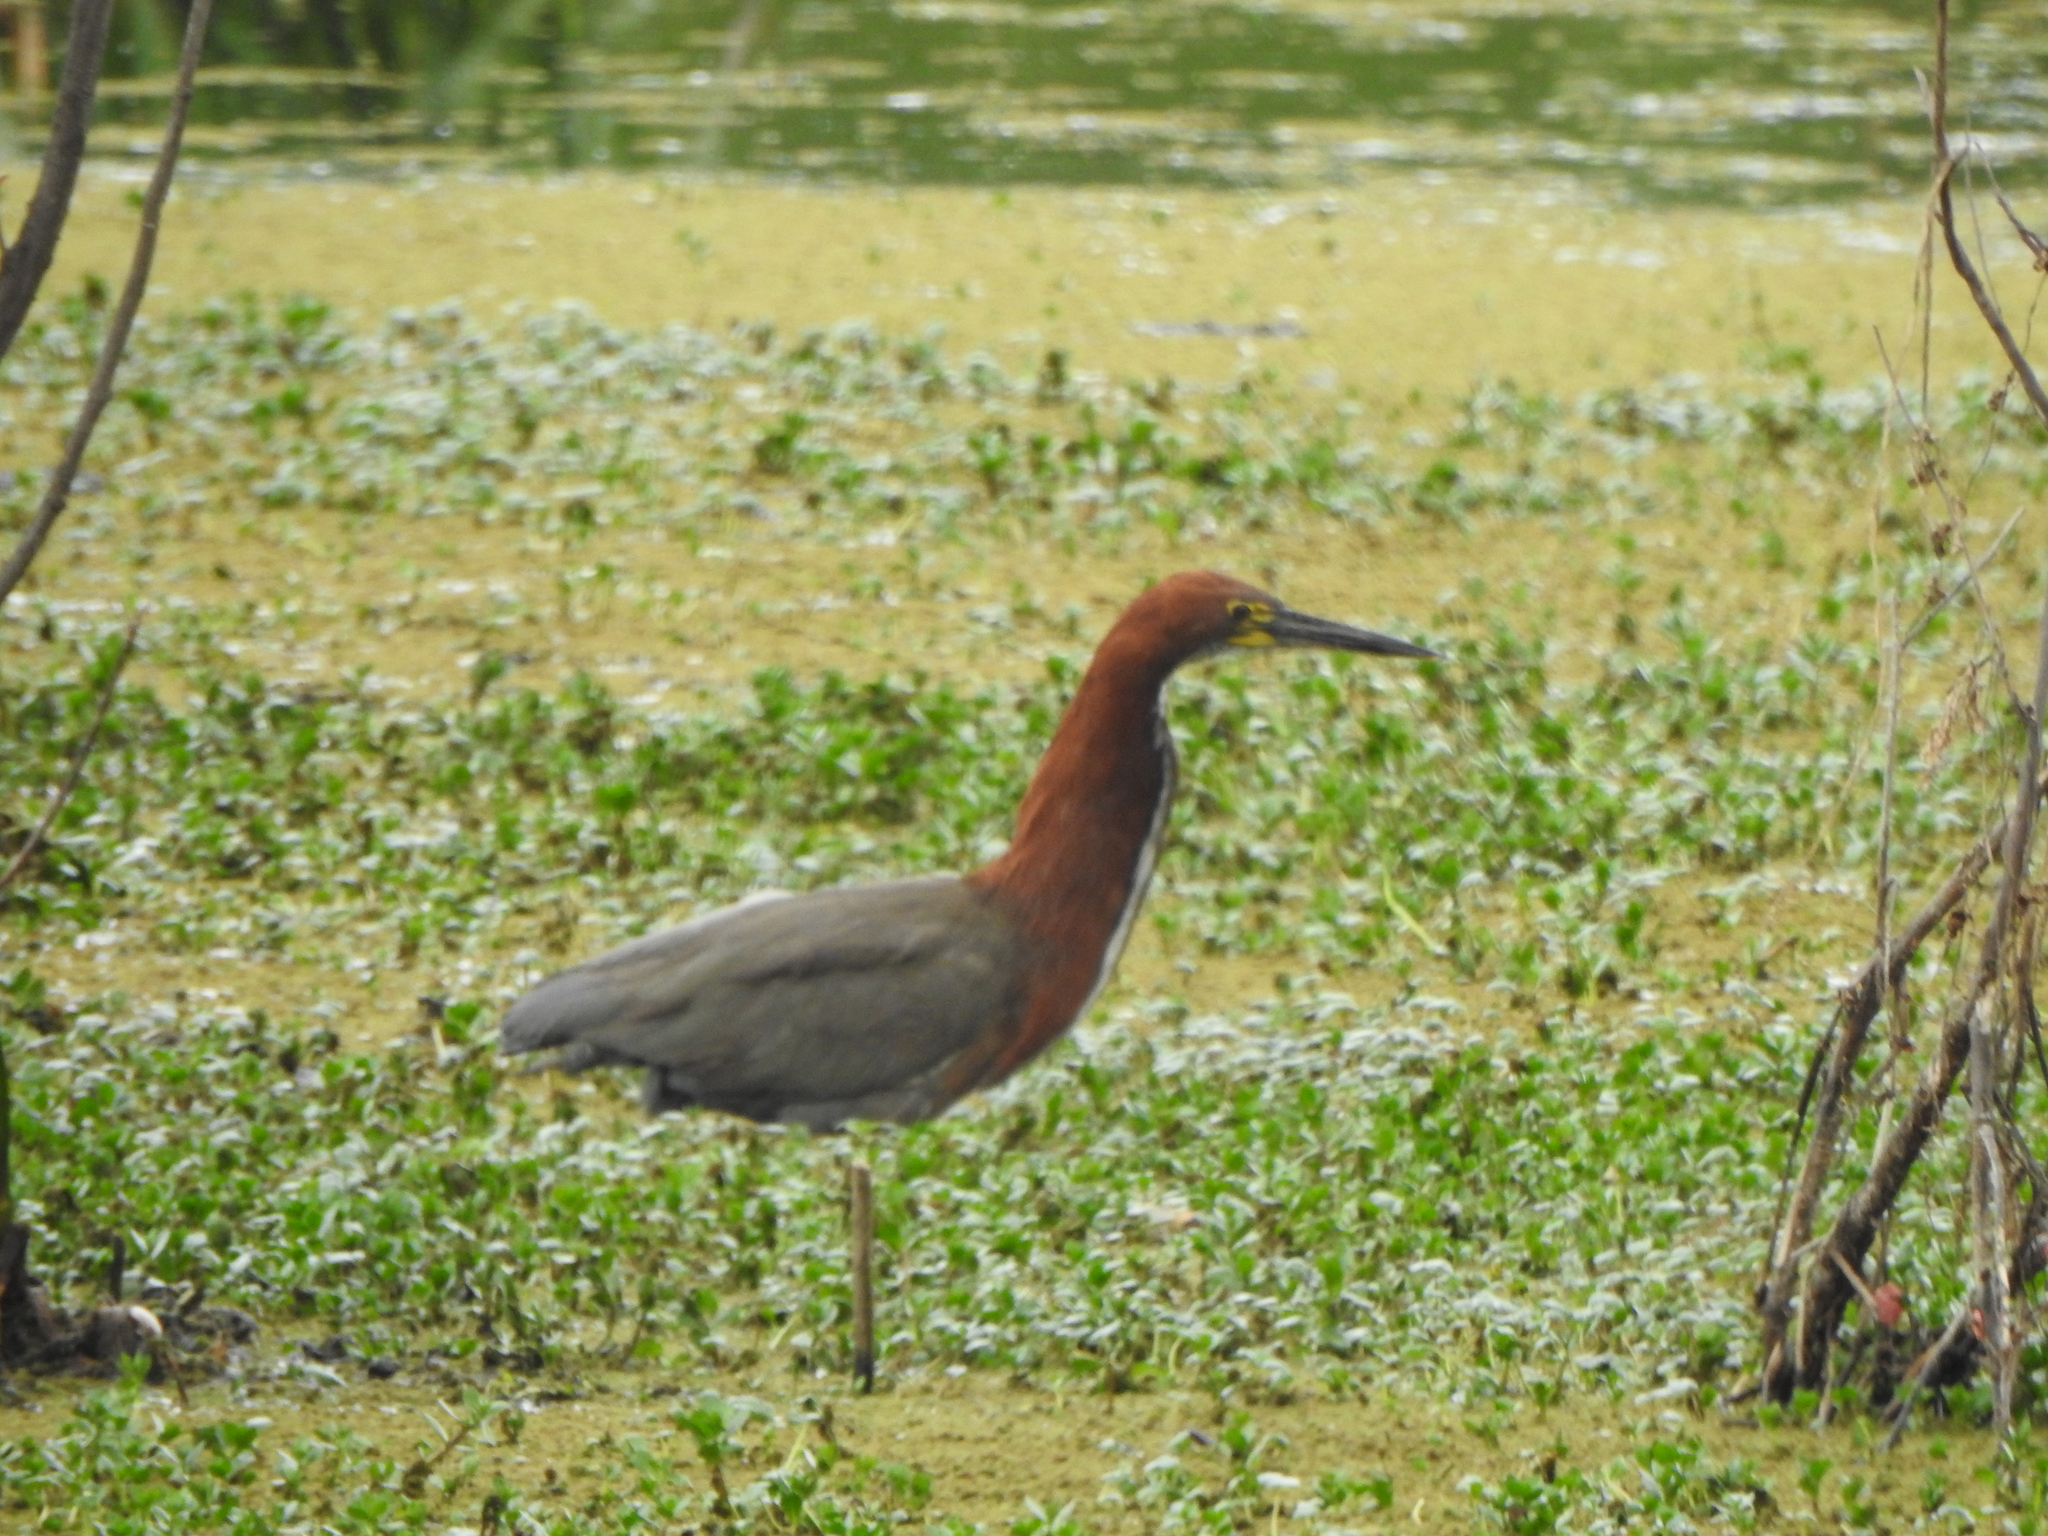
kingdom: Animalia
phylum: Chordata
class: Aves
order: Pelecaniformes
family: Ardeidae
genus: Tigrisoma
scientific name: Tigrisoma lineatum
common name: Rufescent tiger-heron
